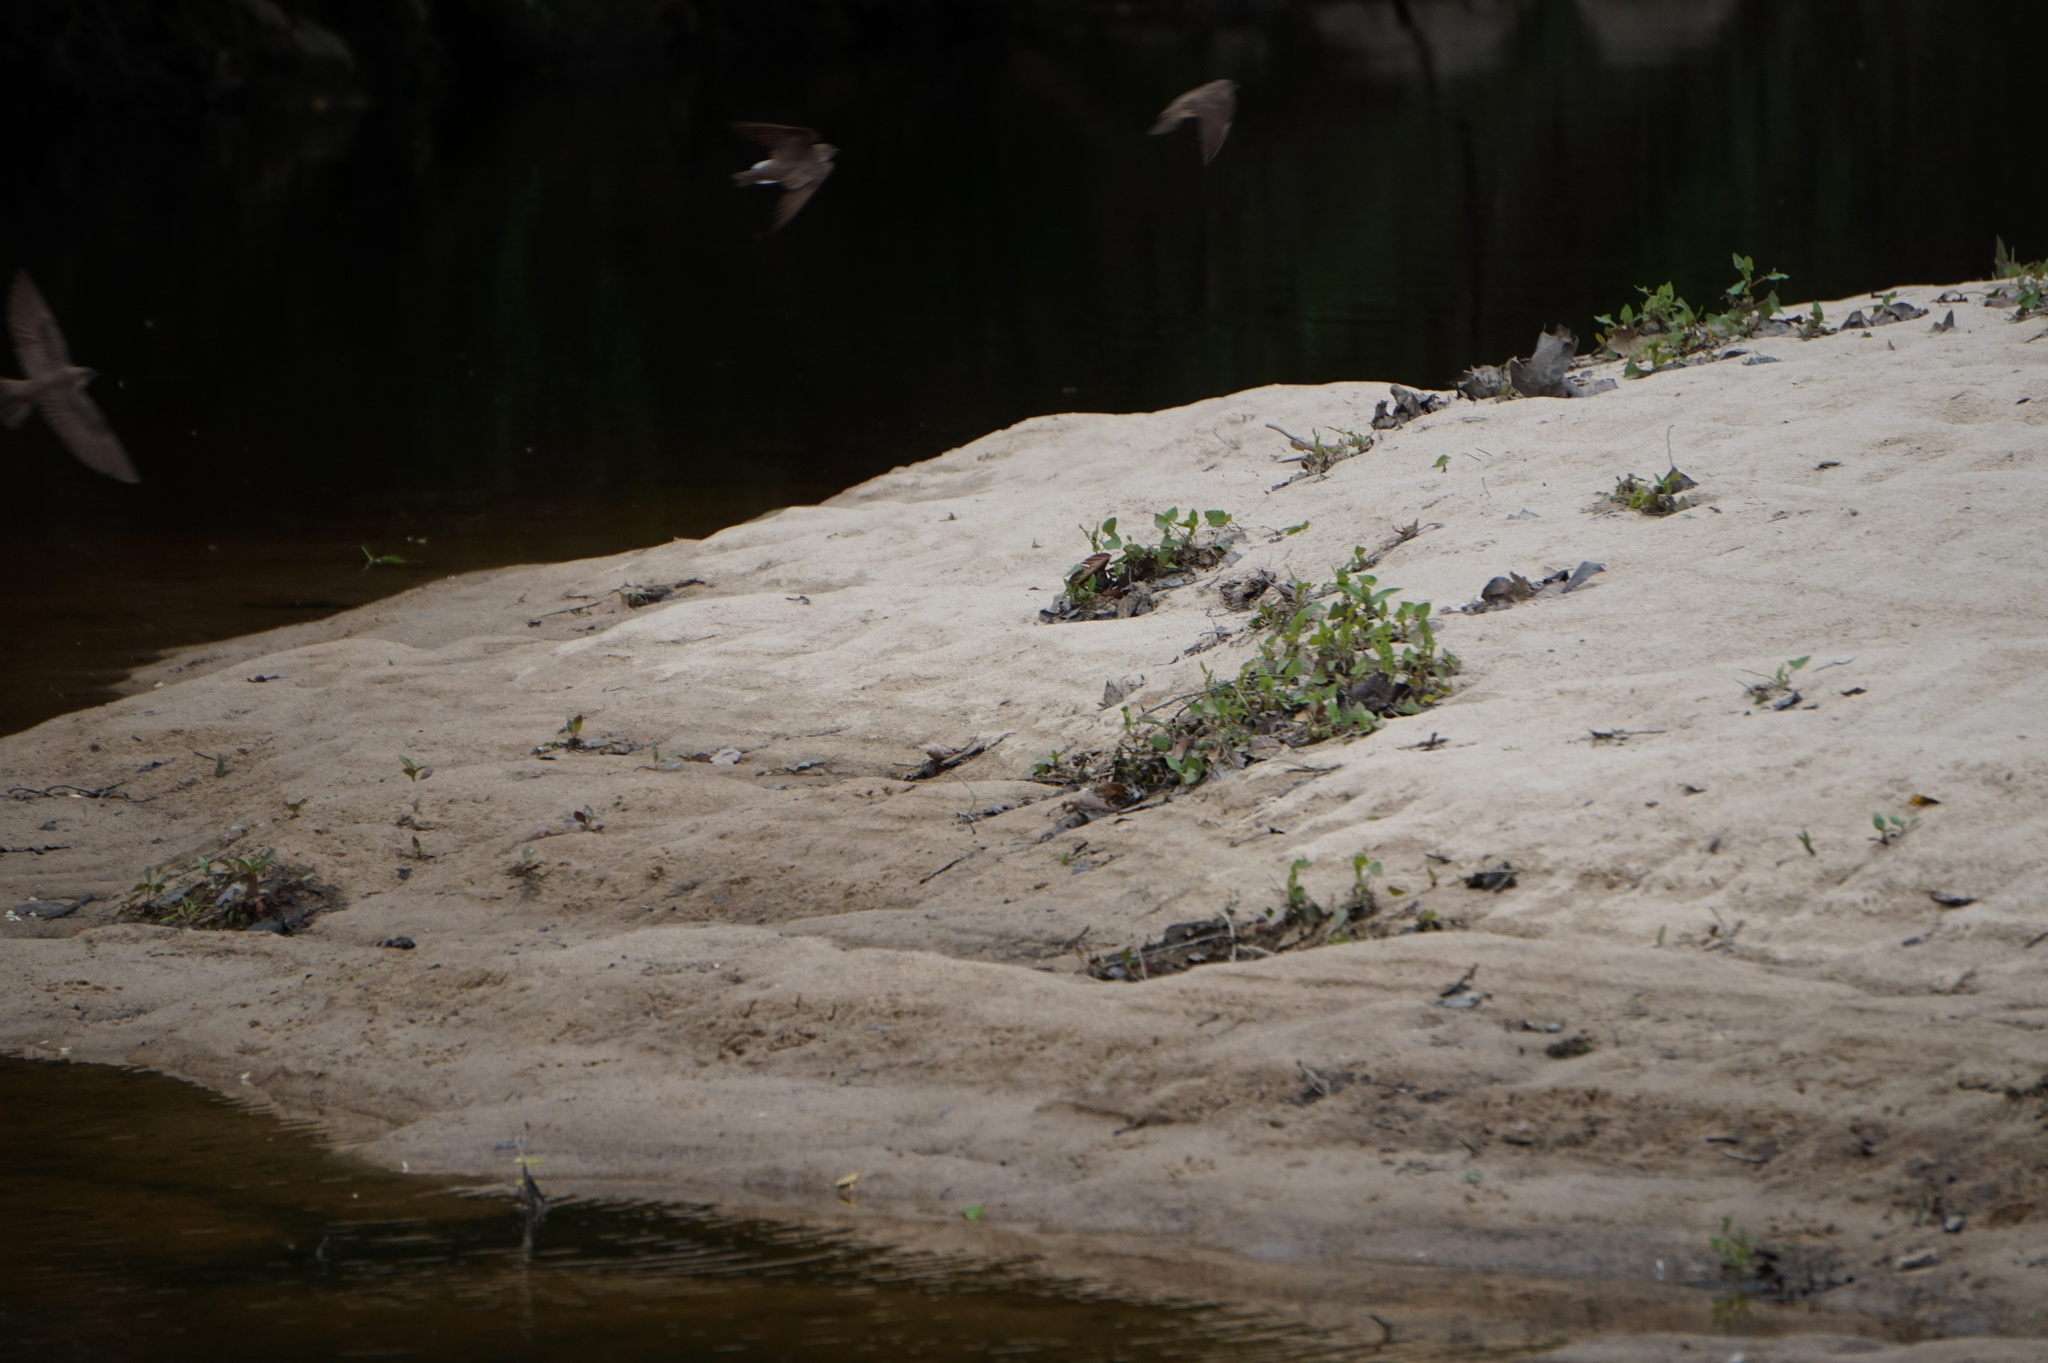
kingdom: Animalia
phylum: Chordata
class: Aves
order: Passeriformes
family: Hirundinidae
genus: Stelgidopteryx
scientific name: Stelgidopteryx serripennis
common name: Northern rough-winged swallow
